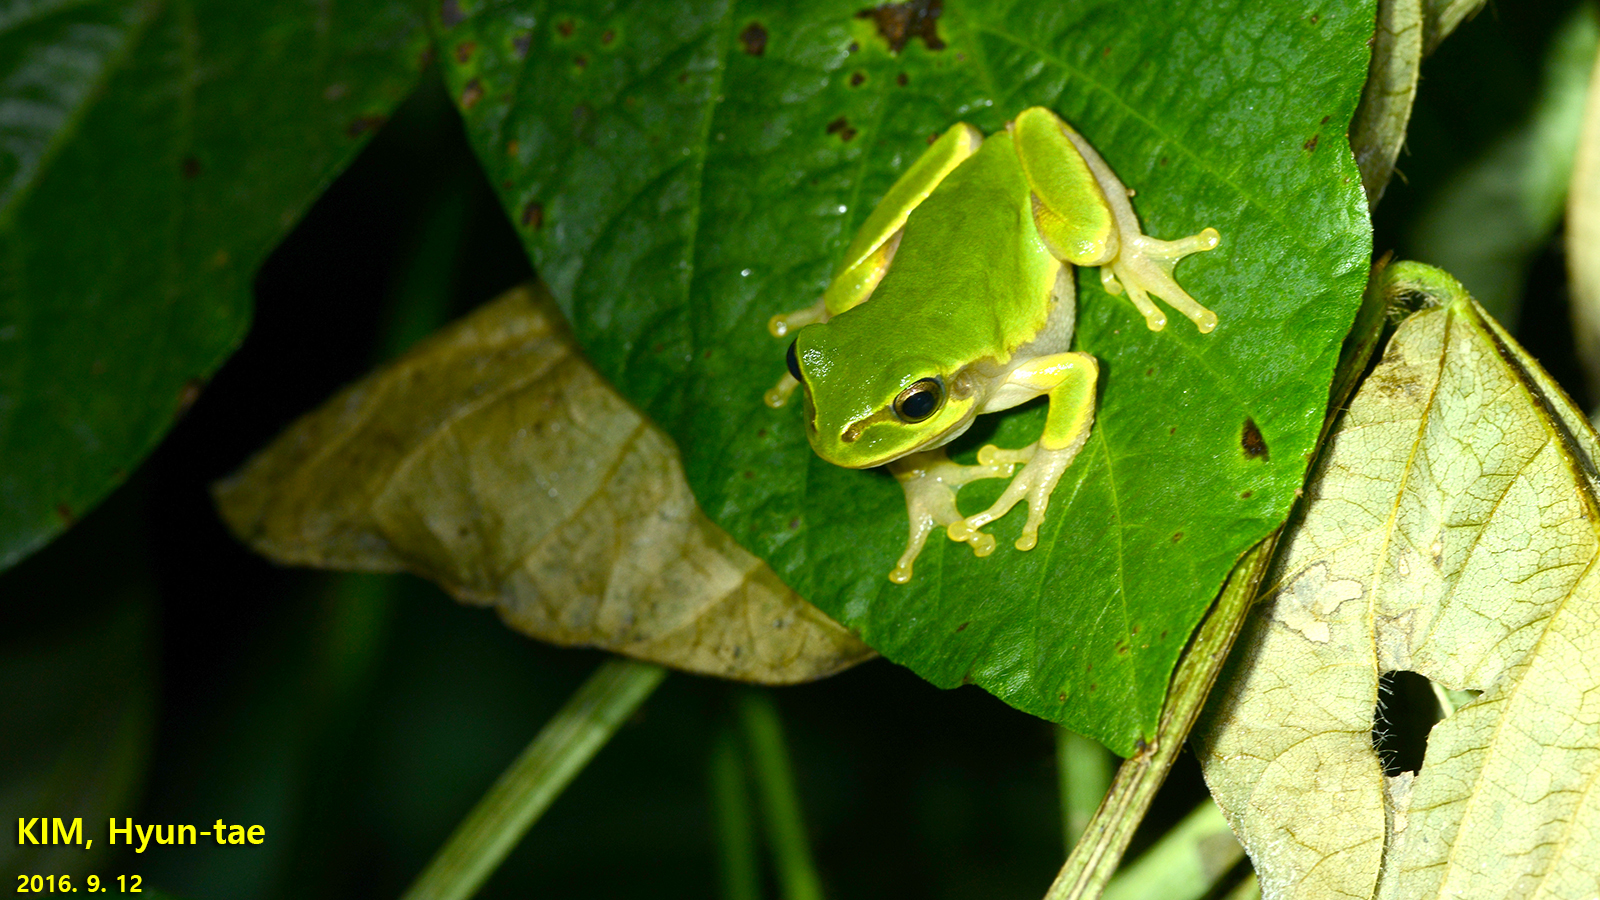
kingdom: Animalia
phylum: Chordata
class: Amphibia
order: Anura
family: Hylidae
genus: Dryophytes
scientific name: Dryophytes japonicus
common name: Japanese treefrog
